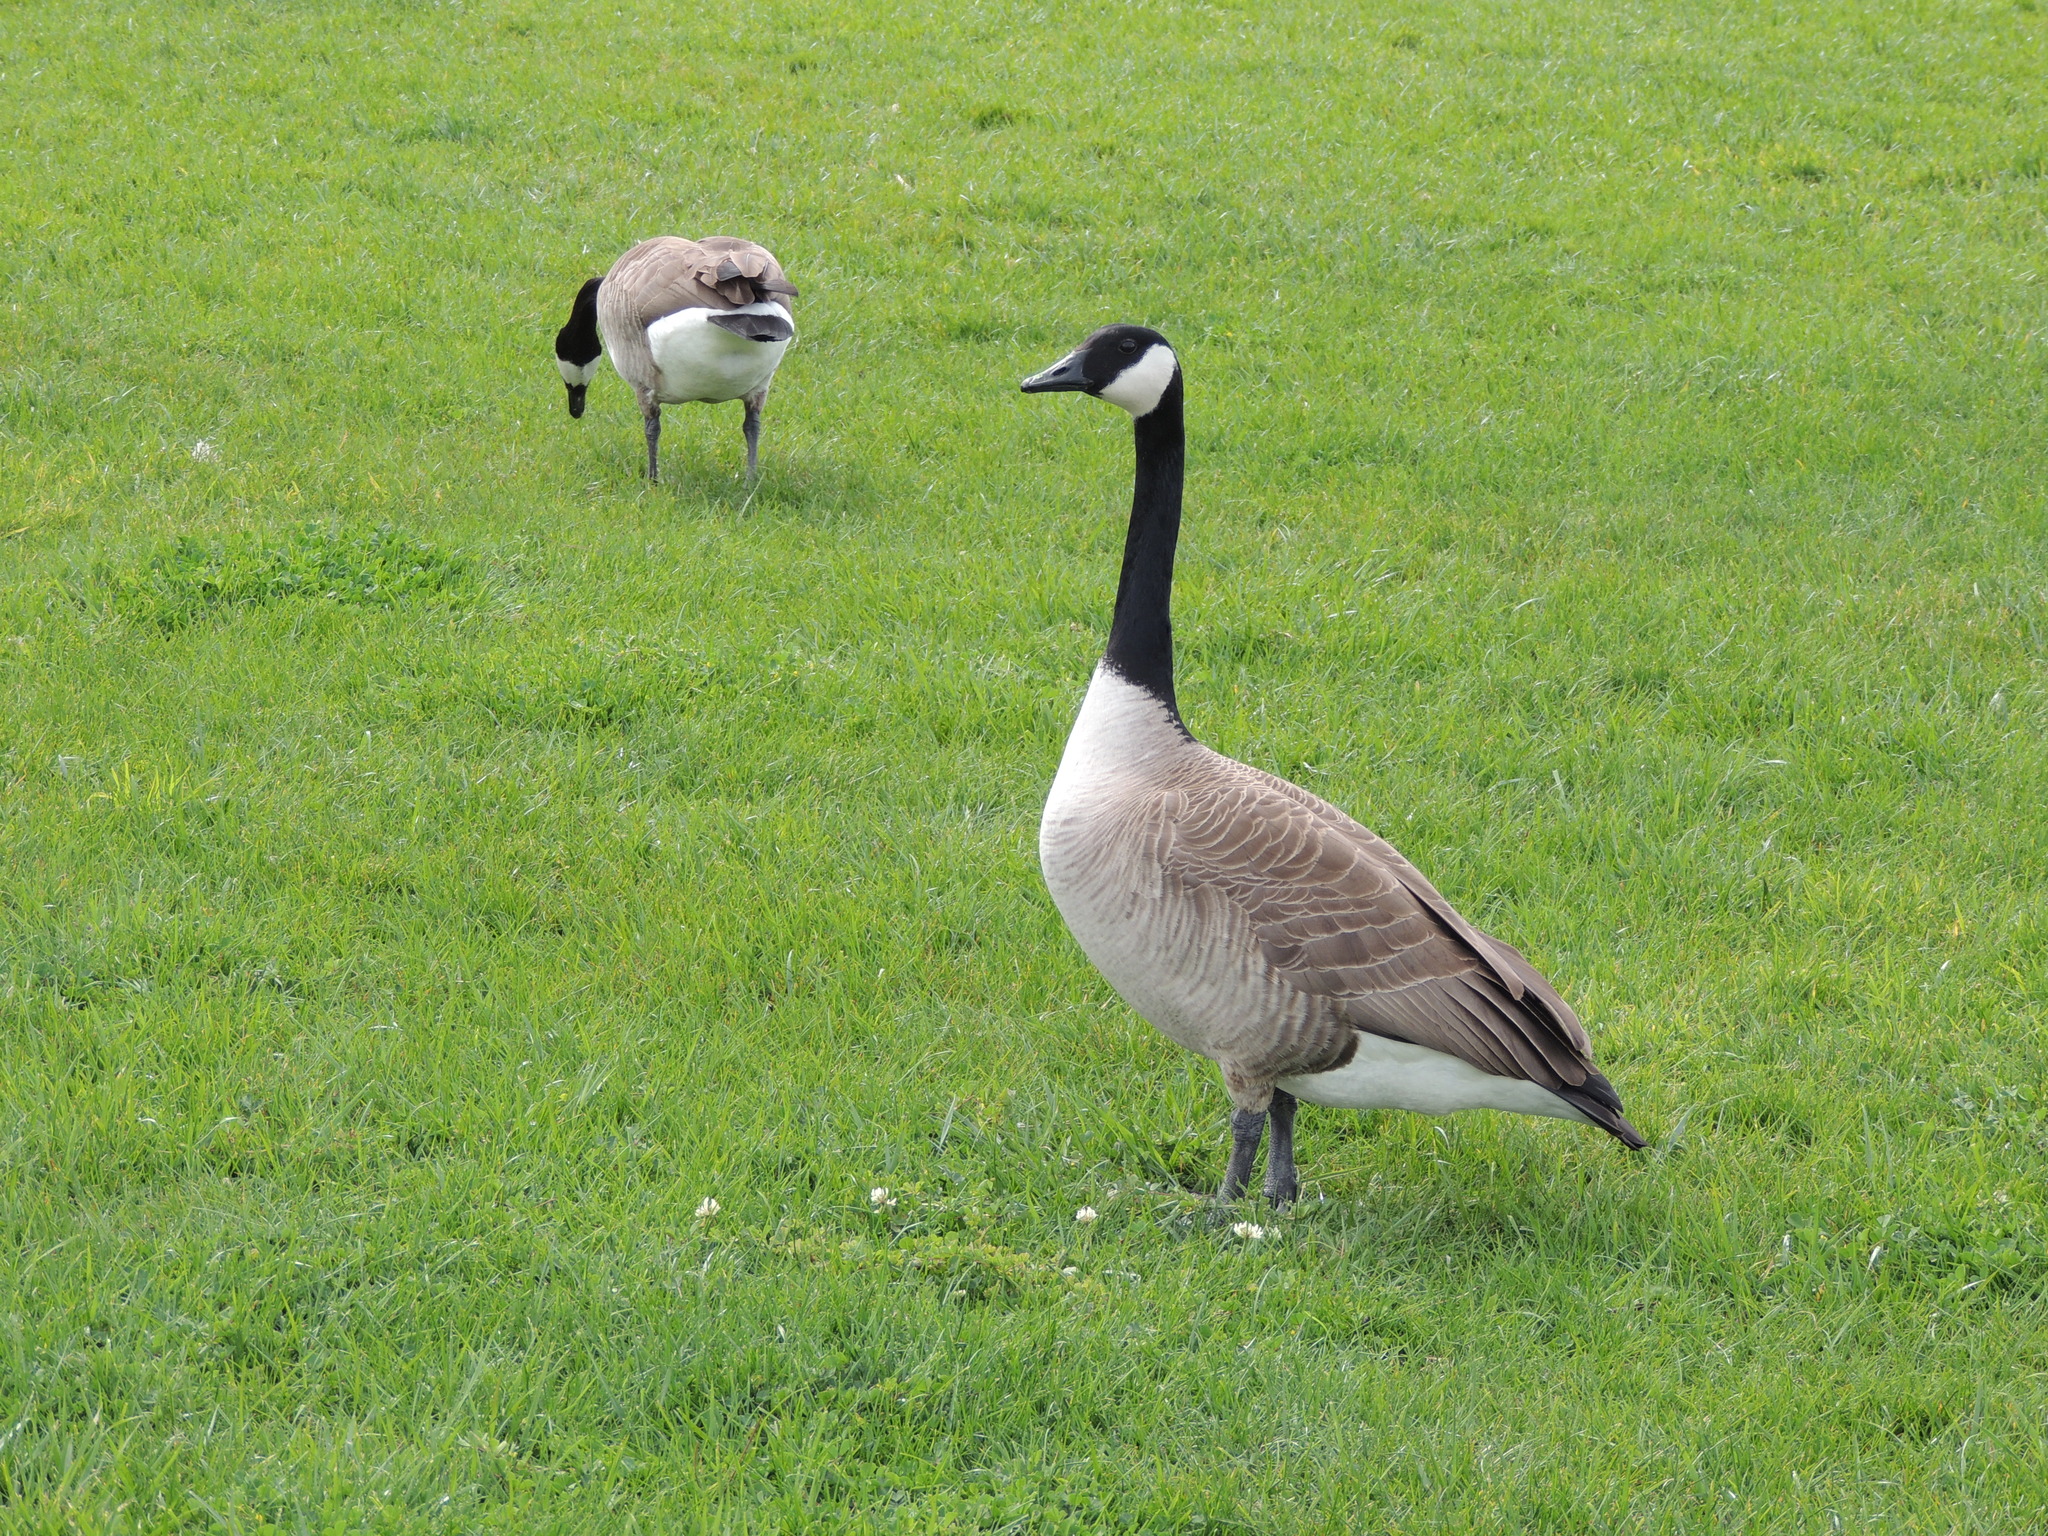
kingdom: Animalia
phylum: Chordata
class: Aves
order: Anseriformes
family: Anatidae
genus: Branta
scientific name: Branta canadensis
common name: Canada goose
